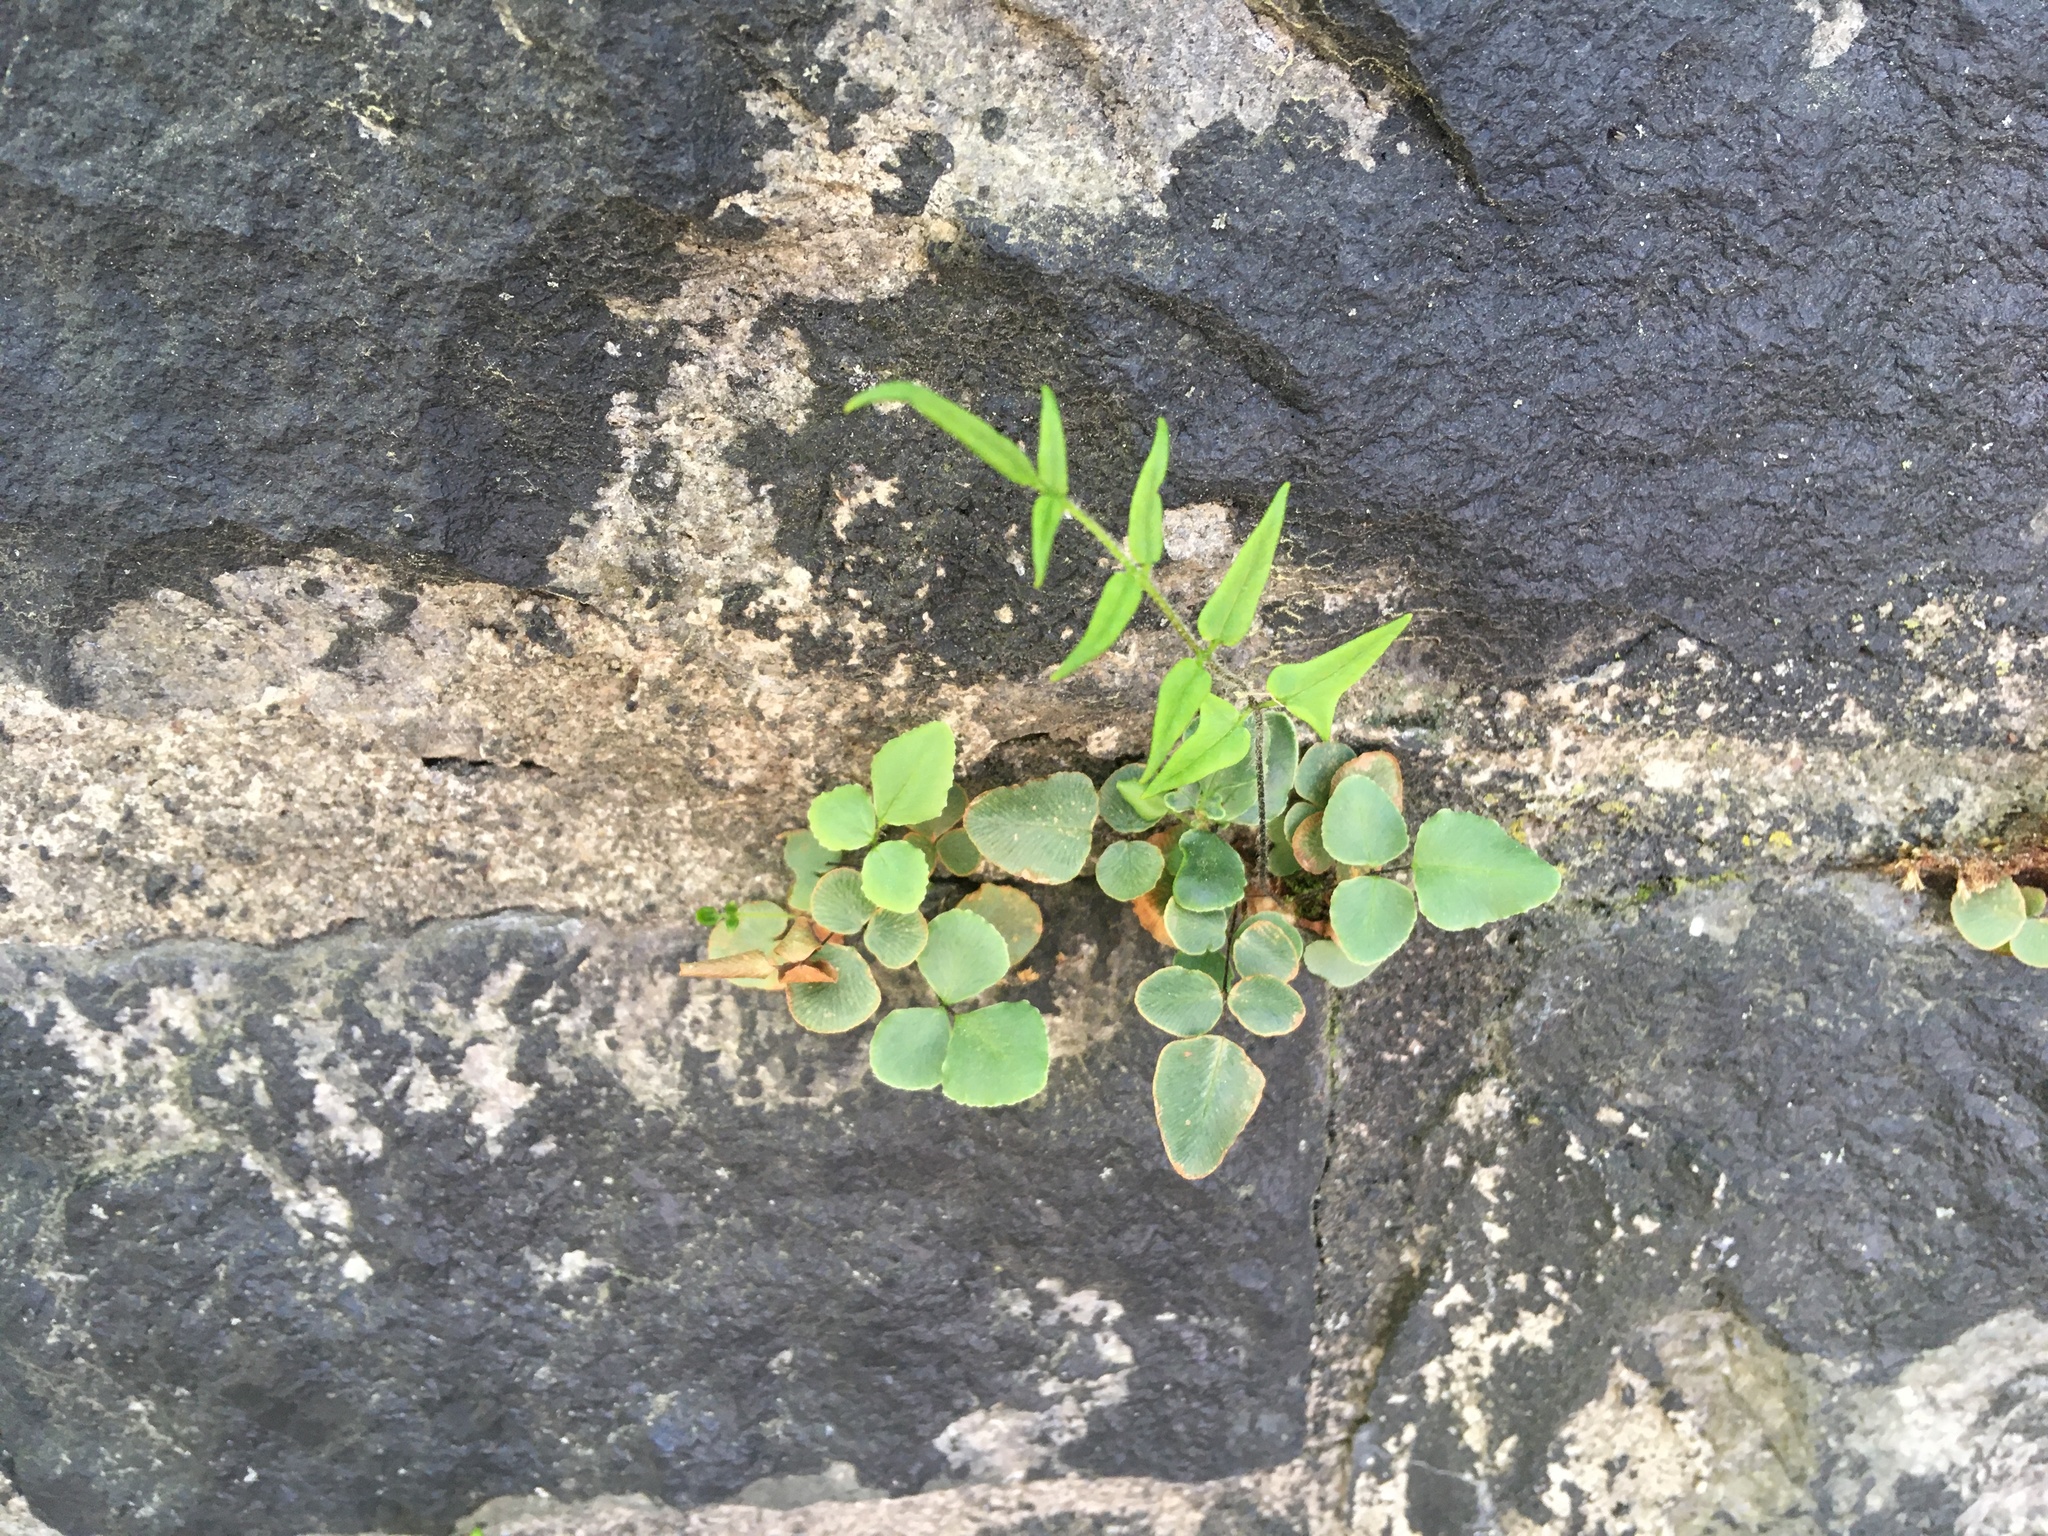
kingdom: Plantae
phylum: Tracheophyta
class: Polypodiopsida
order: Polypodiales
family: Pteridaceae
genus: Pellaea
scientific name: Pellaea atropurpurea
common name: Hairy cliffbrake
